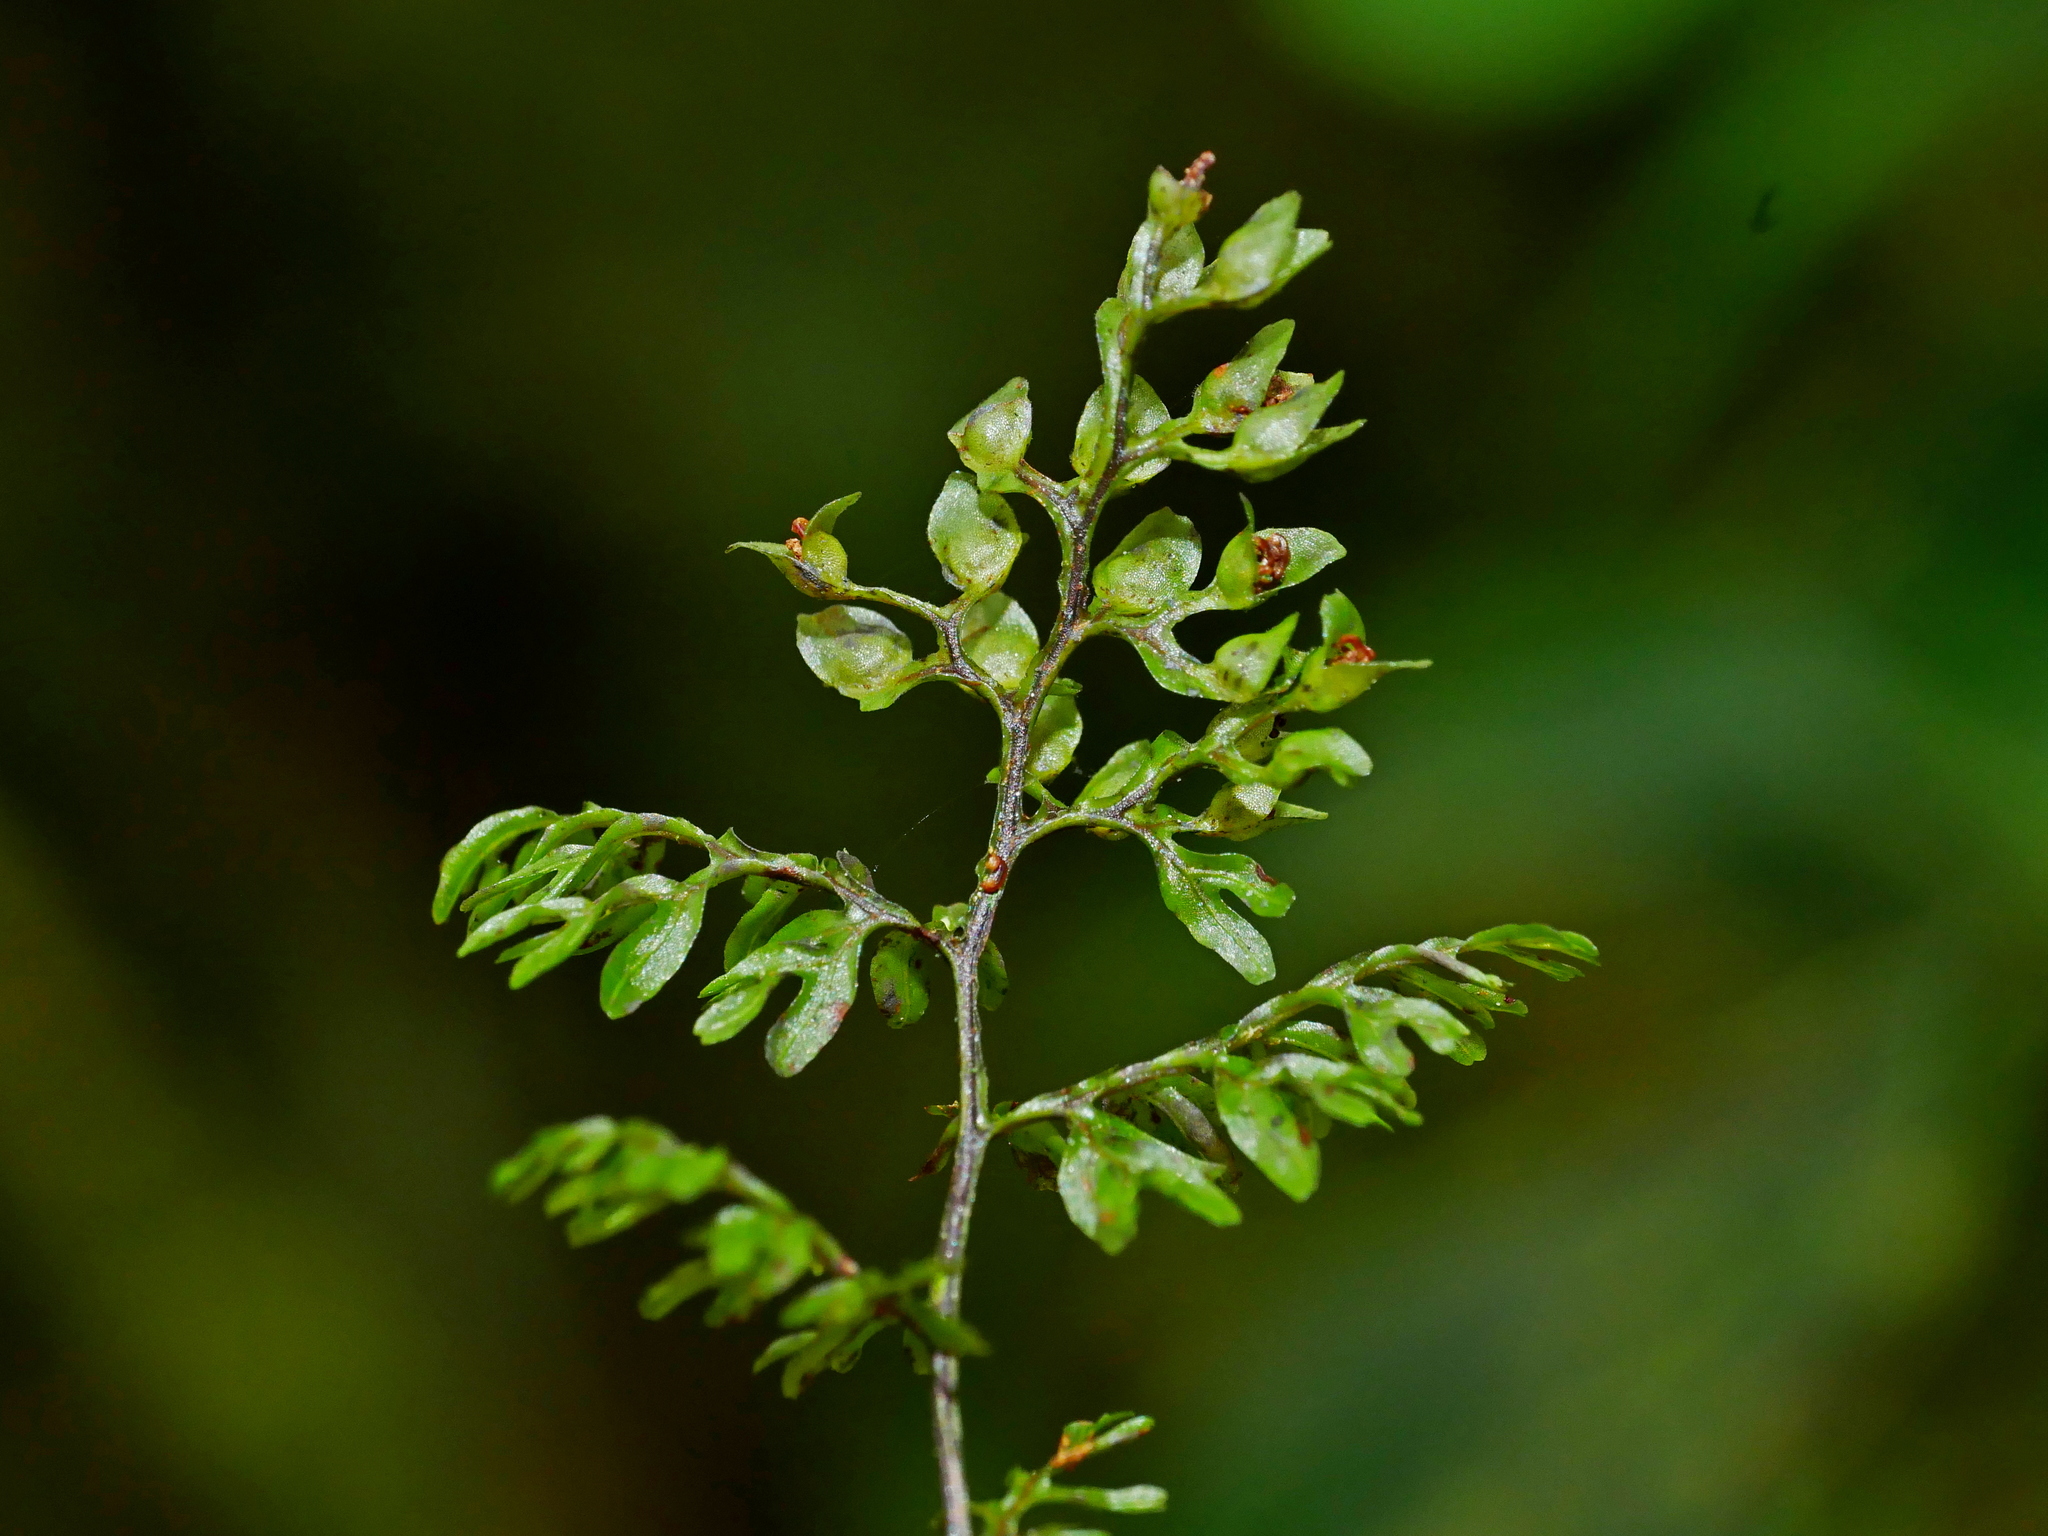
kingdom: Plantae
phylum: Tracheophyta
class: Polypodiopsida
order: Hymenophyllales
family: Hymenophyllaceae
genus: Hymenophyllum
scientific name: Hymenophyllum paniculiflorum
